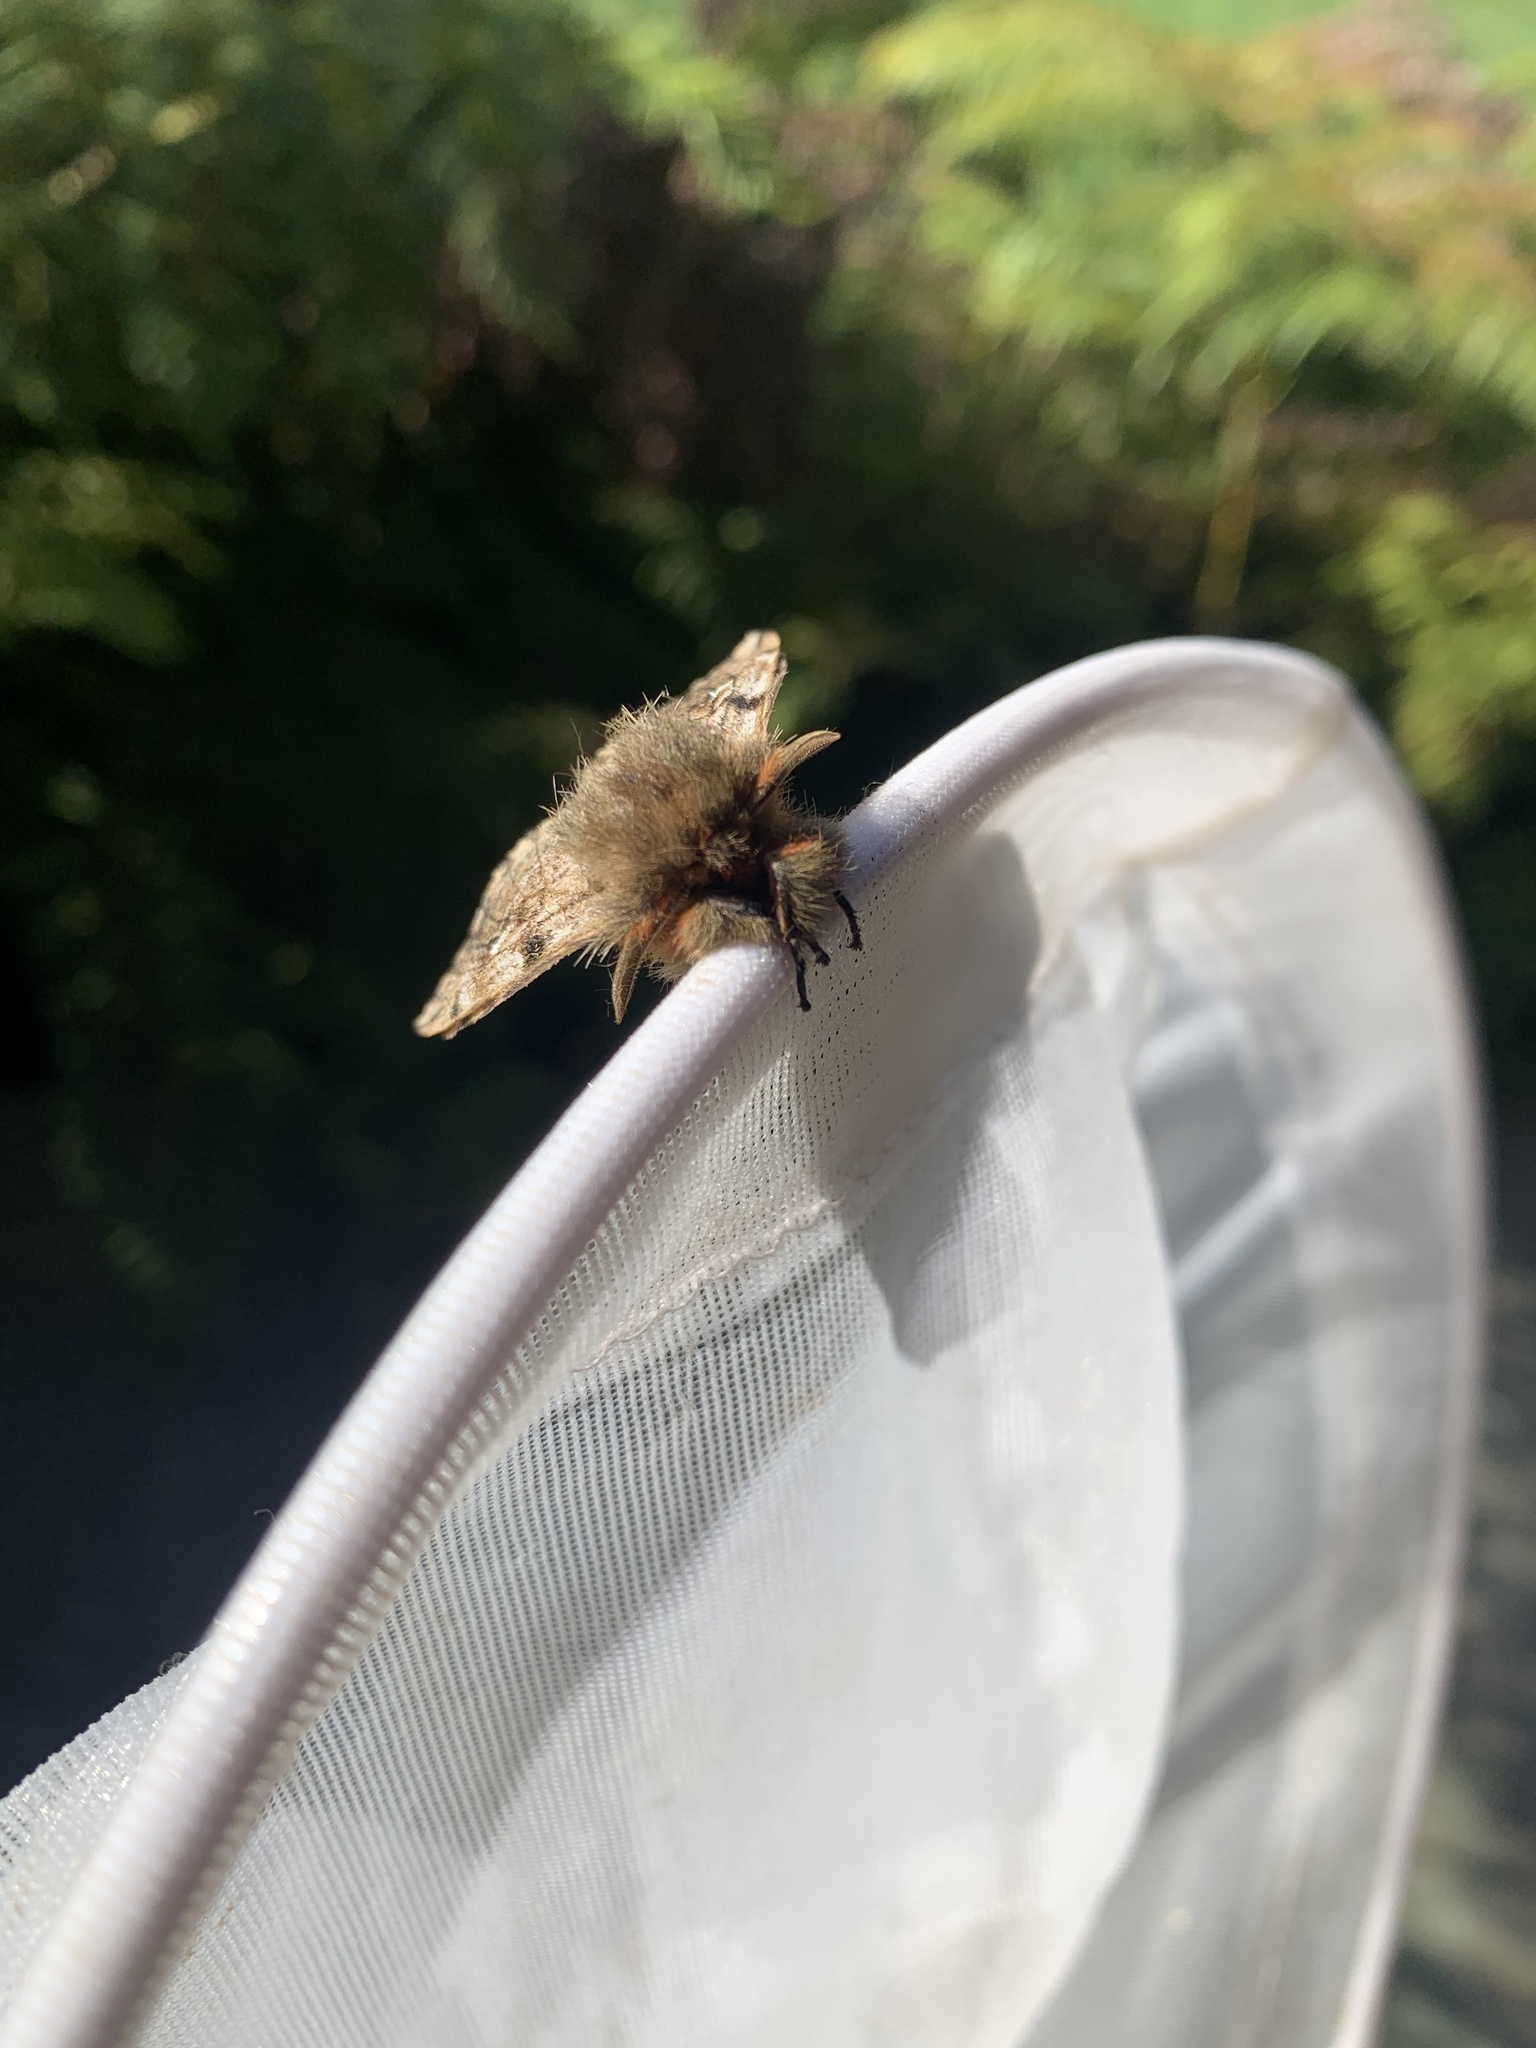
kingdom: Animalia
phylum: Arthropoda
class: Insecta
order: Lepidoptera
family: Saturniidae
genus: Ormiscodes
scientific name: Ormiscodes nigrosignata
